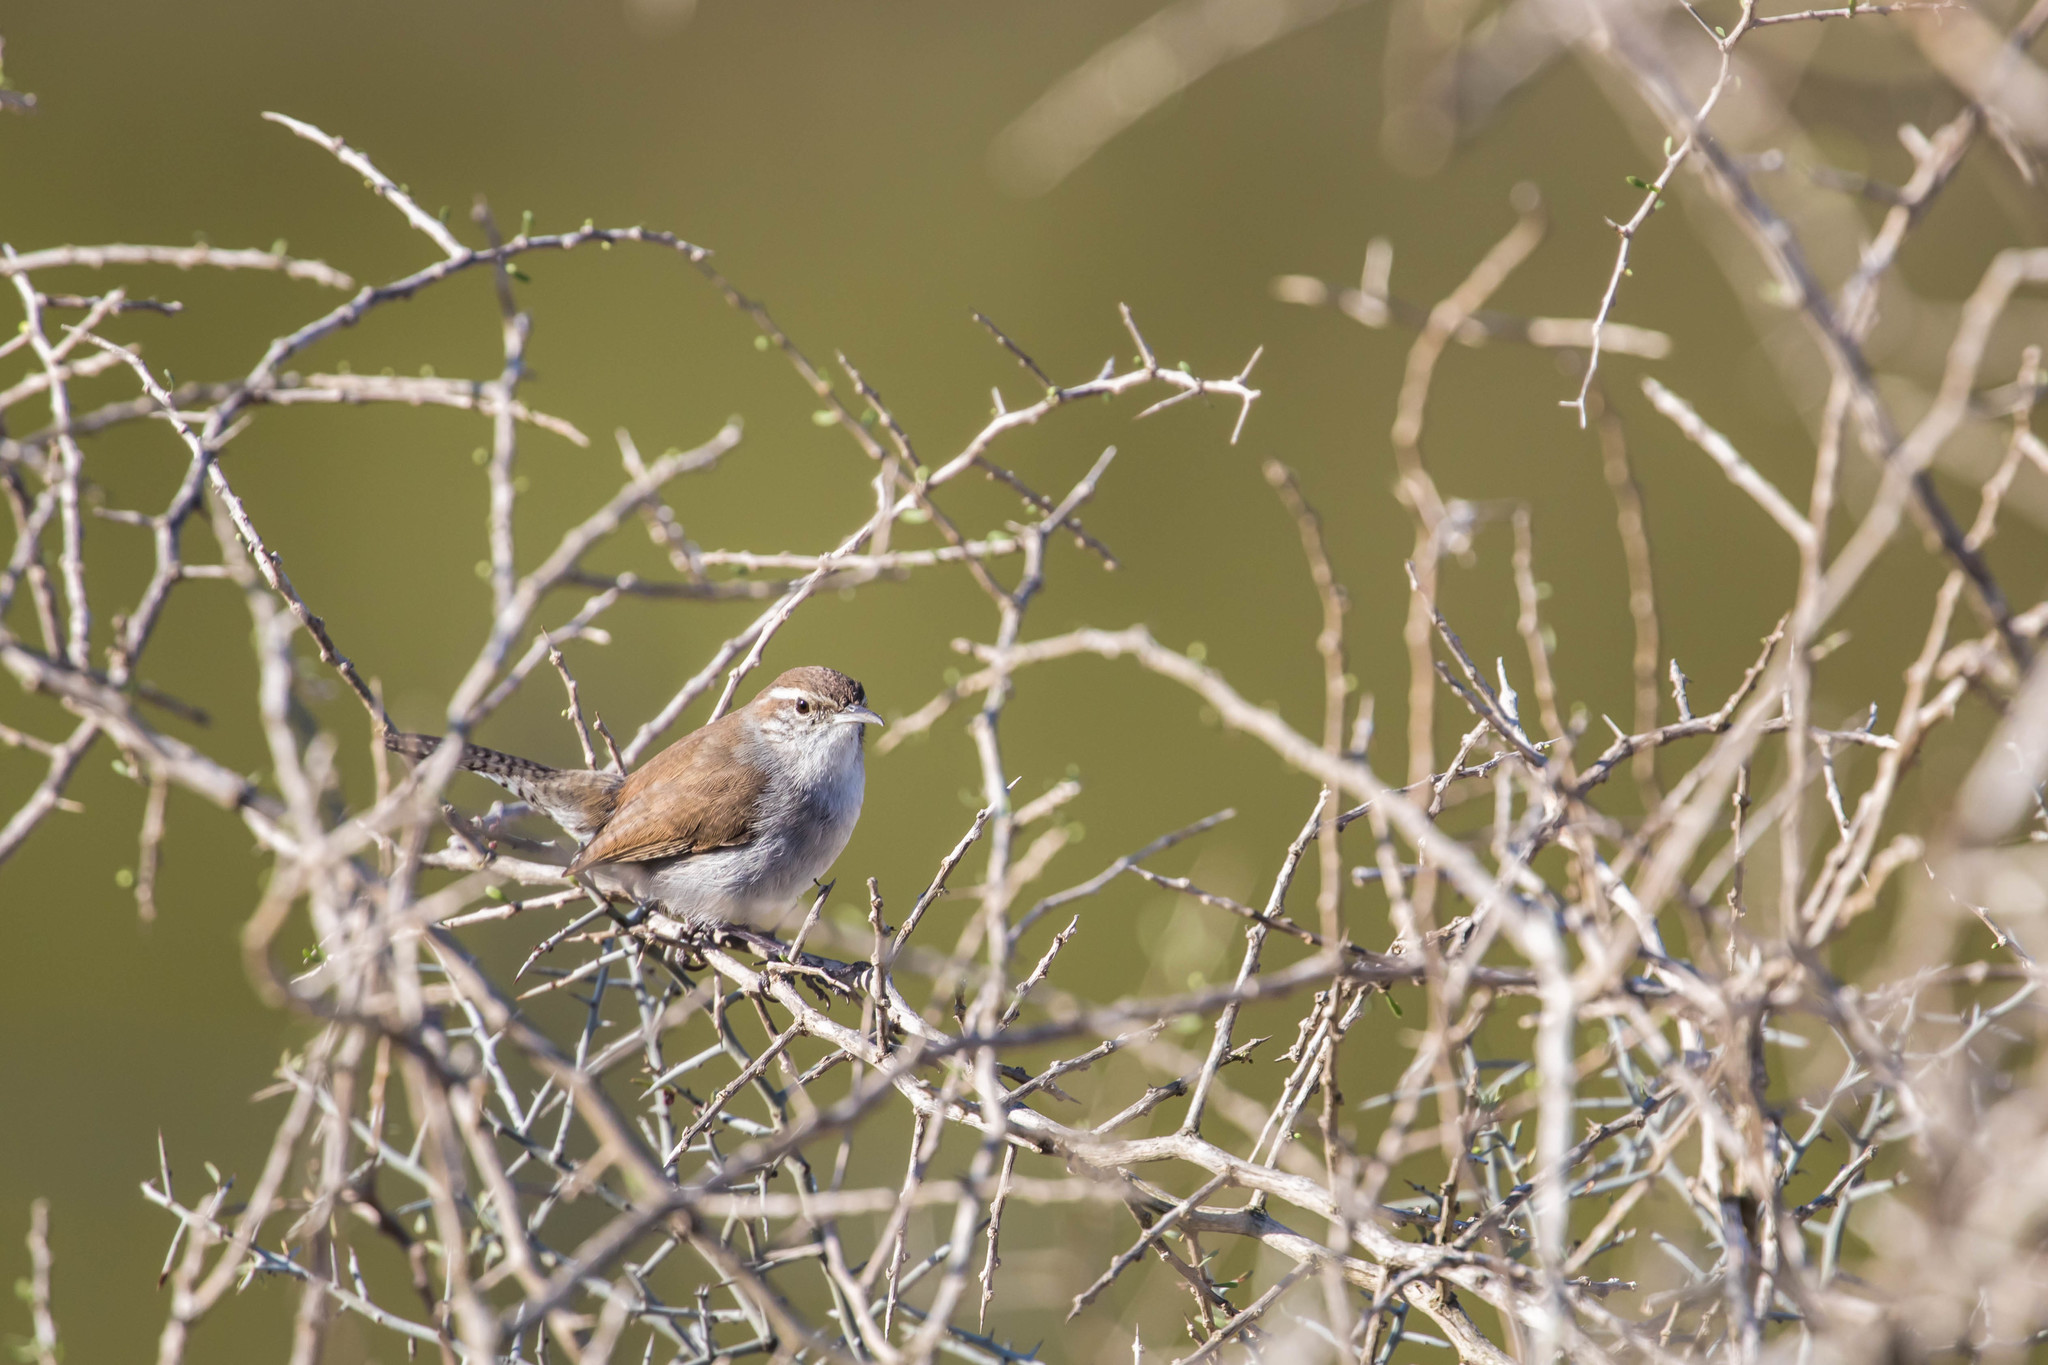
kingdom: Animalia
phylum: Chordata
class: Aves
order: Passeriformes
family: Troglodytidae
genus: Thryomanes
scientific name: Thryomanes bewickii
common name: Bewick's wren
